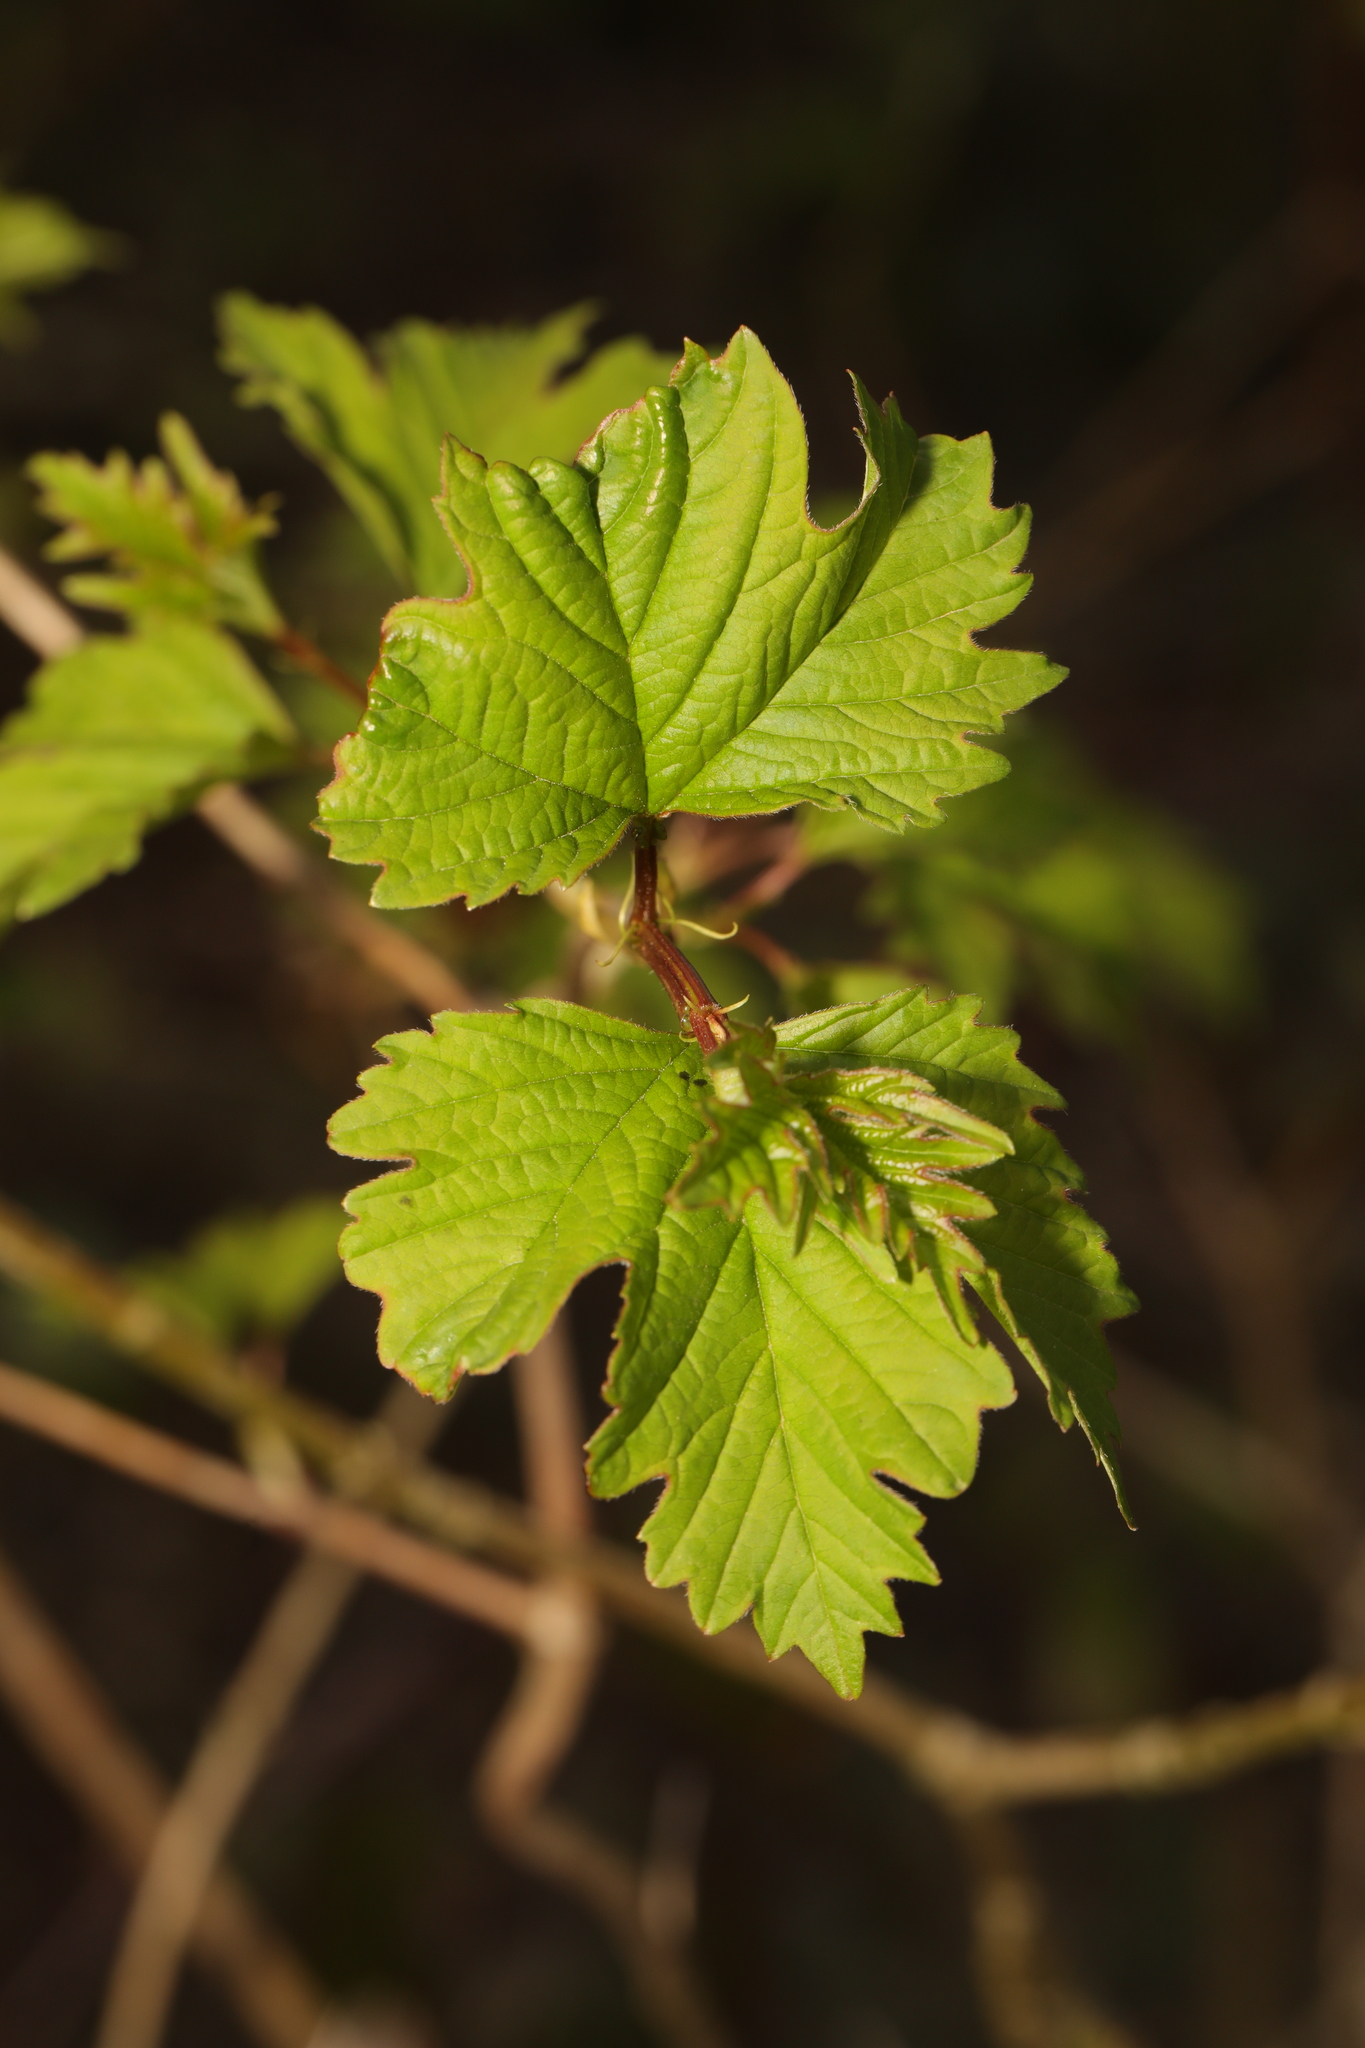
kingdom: Plantae
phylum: Tracheophyta
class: Magnoliopsida
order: Dipsacales
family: Viburnaceae
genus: Viburnum
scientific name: Viburnum opulus
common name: Guelder-rose
